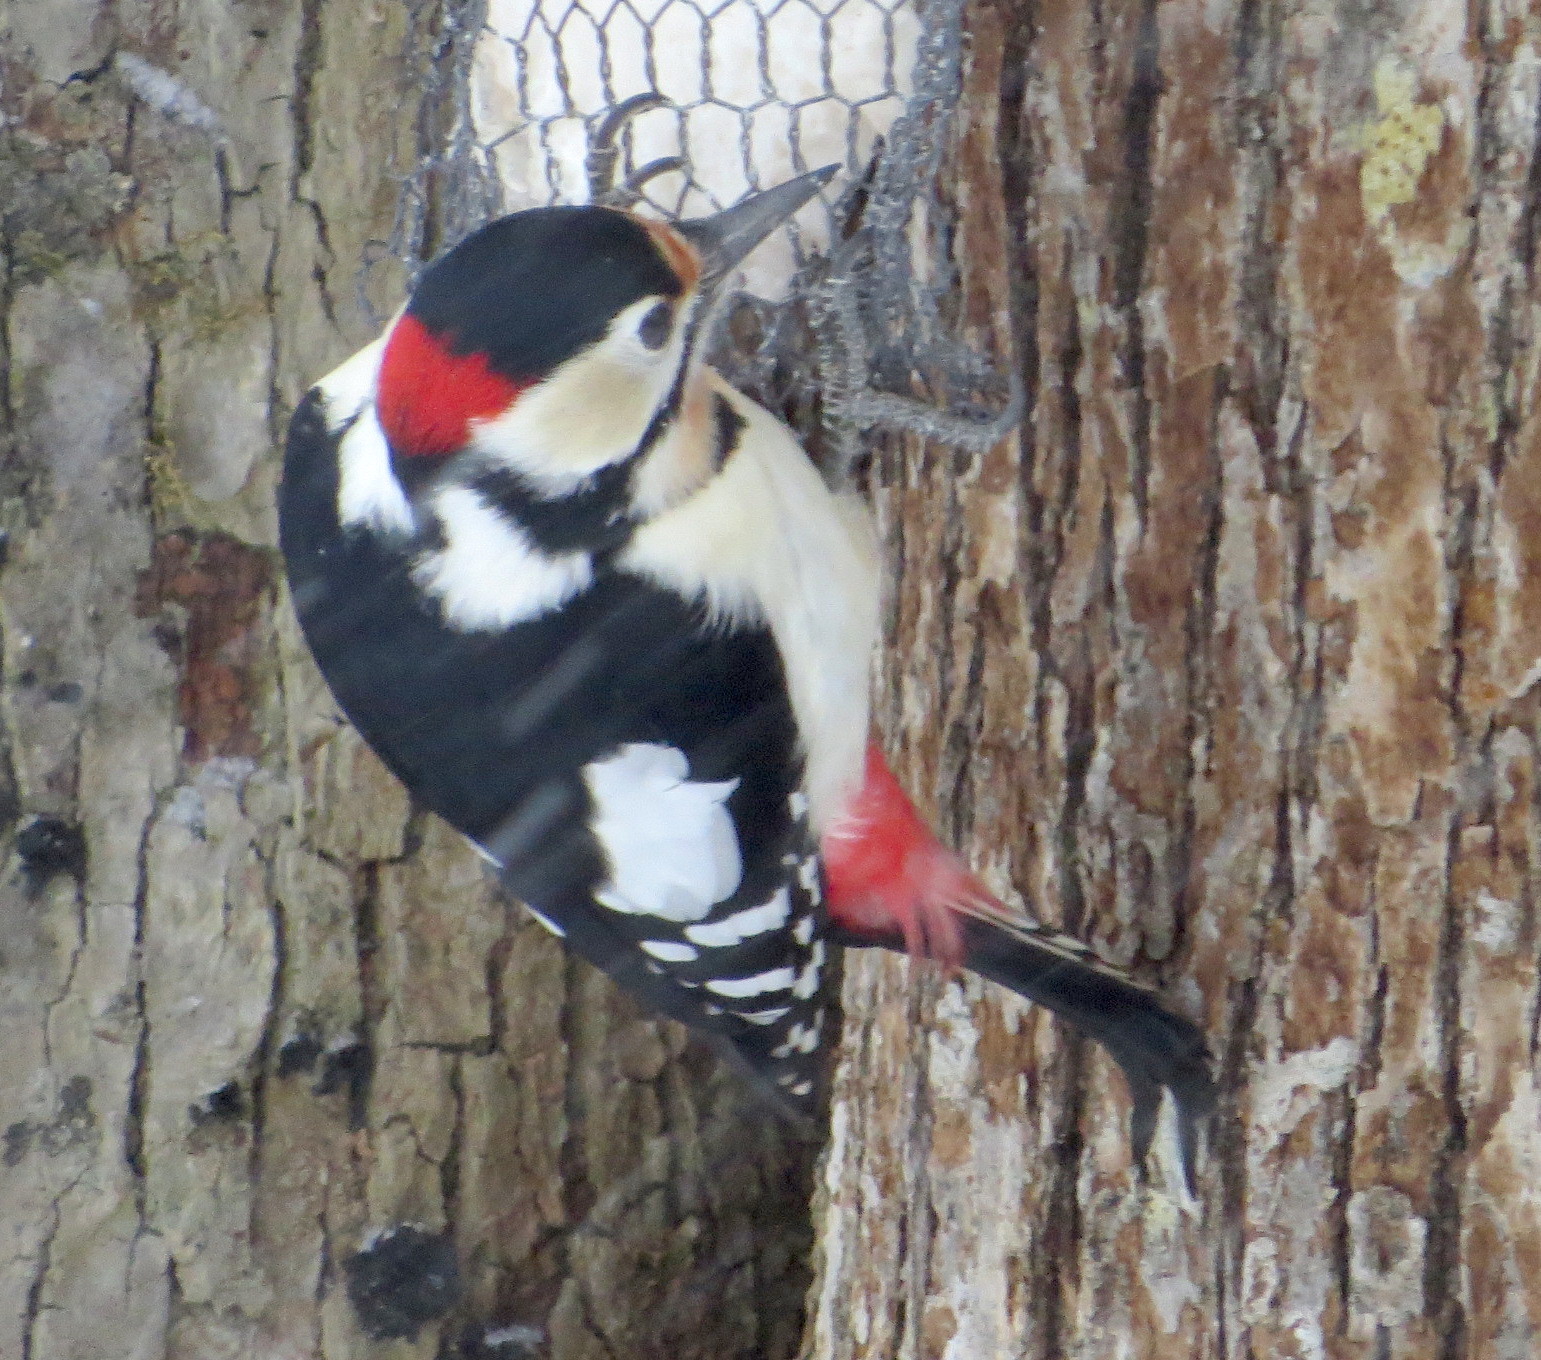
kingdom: Animalia
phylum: Chordata
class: Aves
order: Piciformes
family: Picidae
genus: Dendrocopos
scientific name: Dendrocopos major
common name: Great spotted woodpecker
